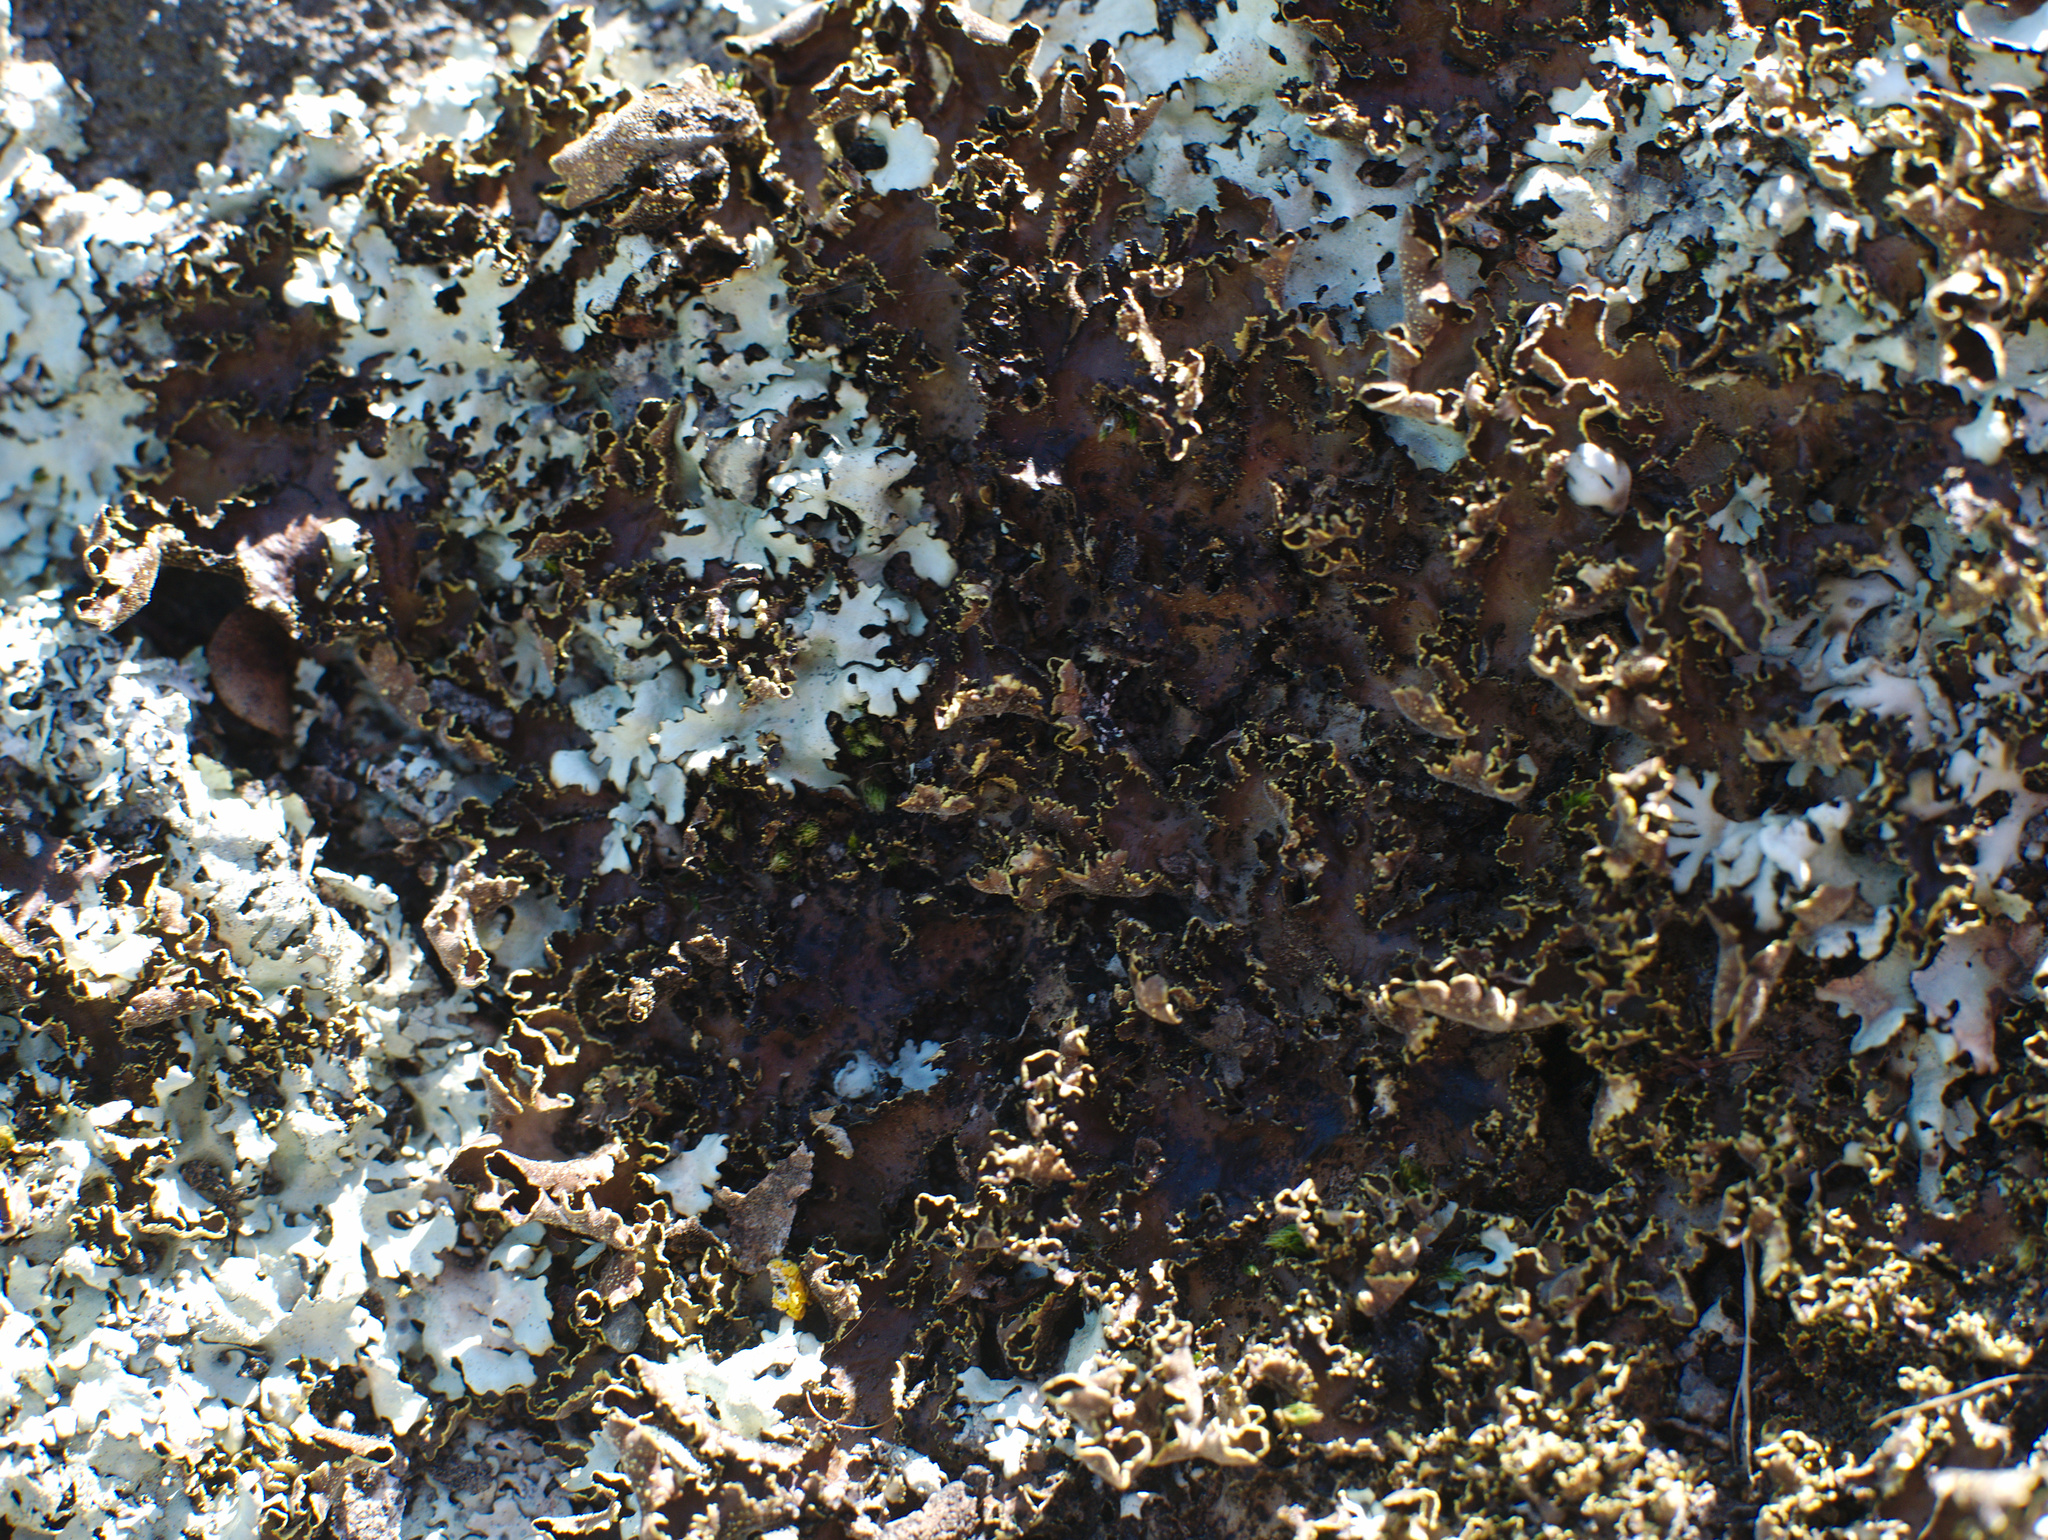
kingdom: Fungi
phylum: Ascomycota
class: Lecanoromycetes
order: Peltigerales
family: Lobariaceae
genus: Pseudocyphellaria
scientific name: Pseudocyphellaria neglecta
